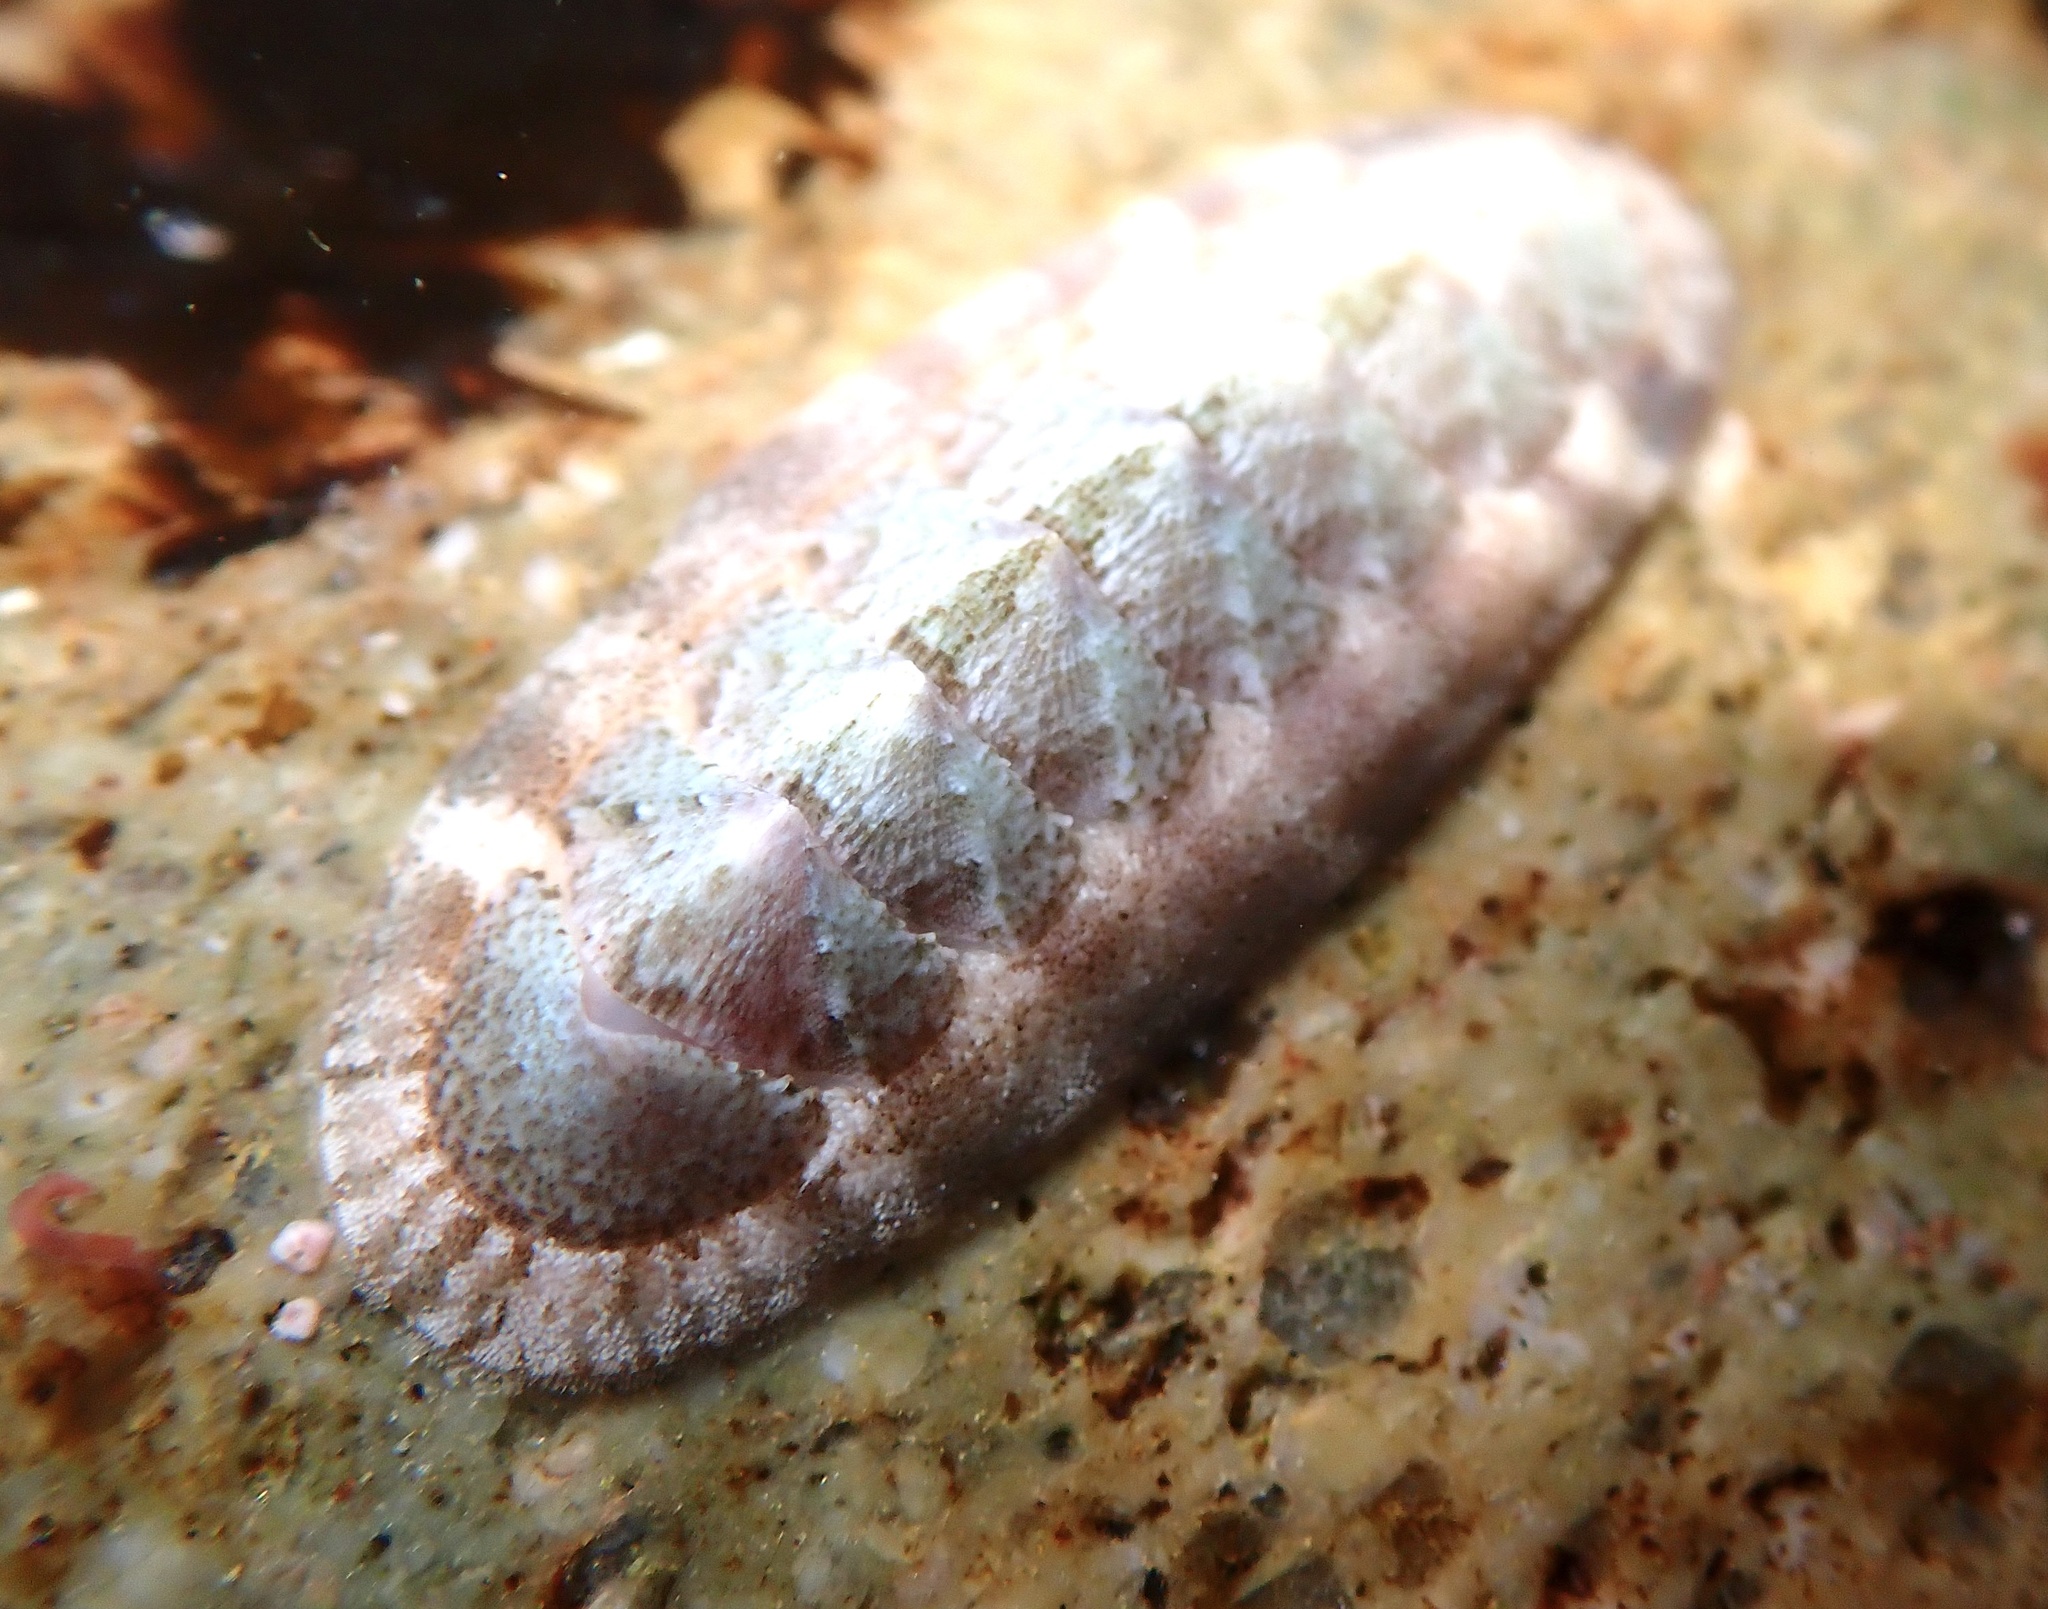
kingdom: Animalia
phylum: Mollusca
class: Polyplacophora
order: Chitonida
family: Ischnochitonidae
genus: Stenoplax
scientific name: Stenoplax heathiana
